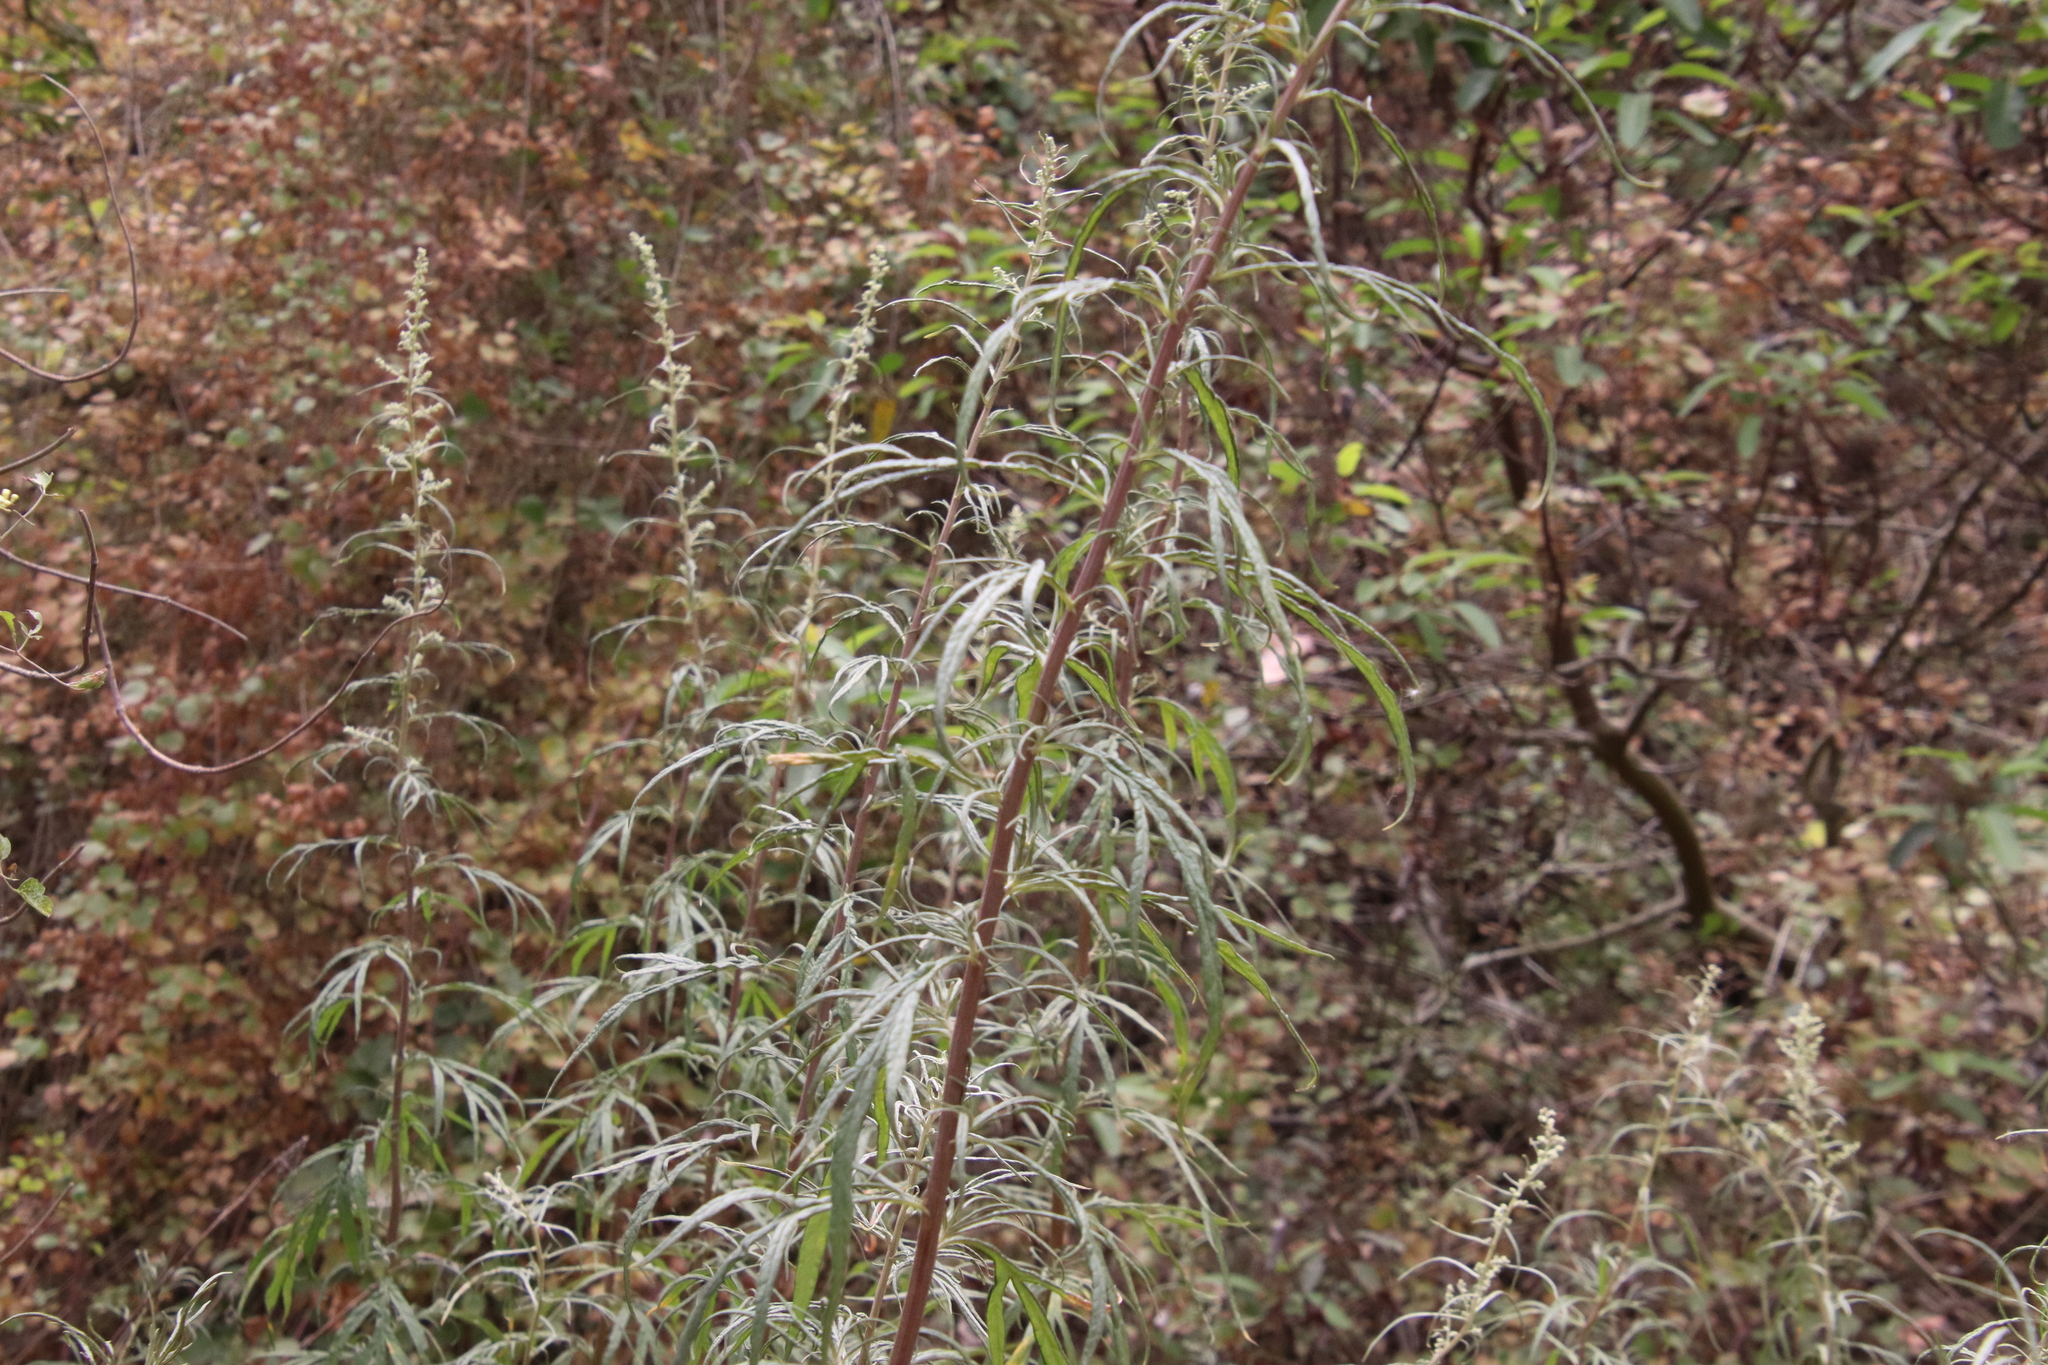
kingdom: Plantae
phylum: Tracheophyta
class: Magnoliopsida
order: Asterales
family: Asteraceae
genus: Artemisia
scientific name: Artemisia palmeri
